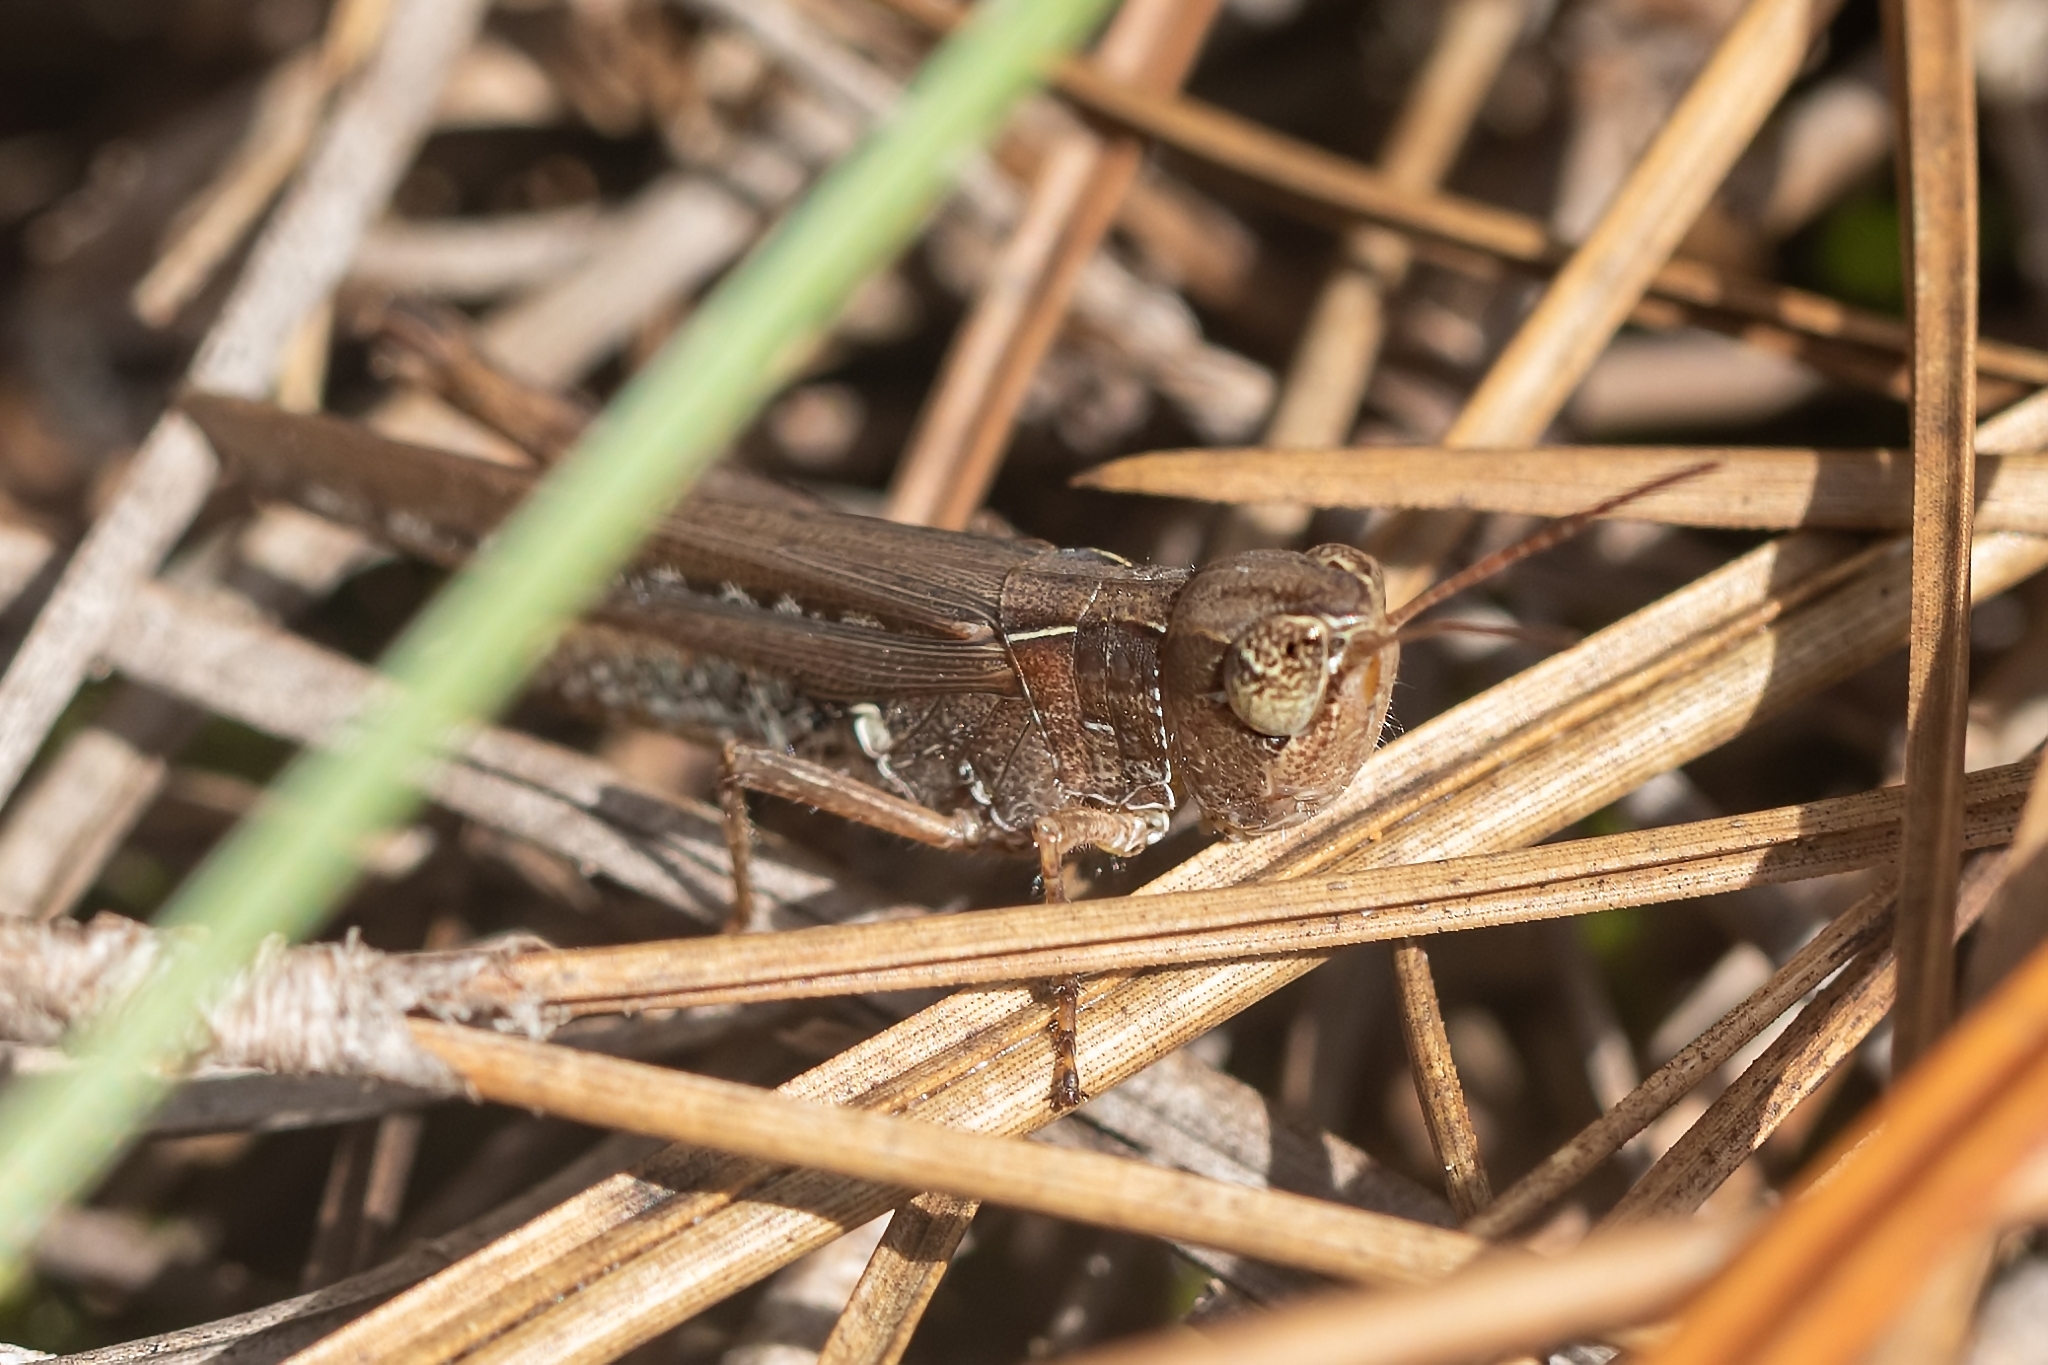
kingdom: Animalia
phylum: Arthropoda
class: Insecta
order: Orthoptera
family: Acrididae
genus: Orphulella
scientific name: Orphulella pelidna
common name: Spotted-wing grasshopper
